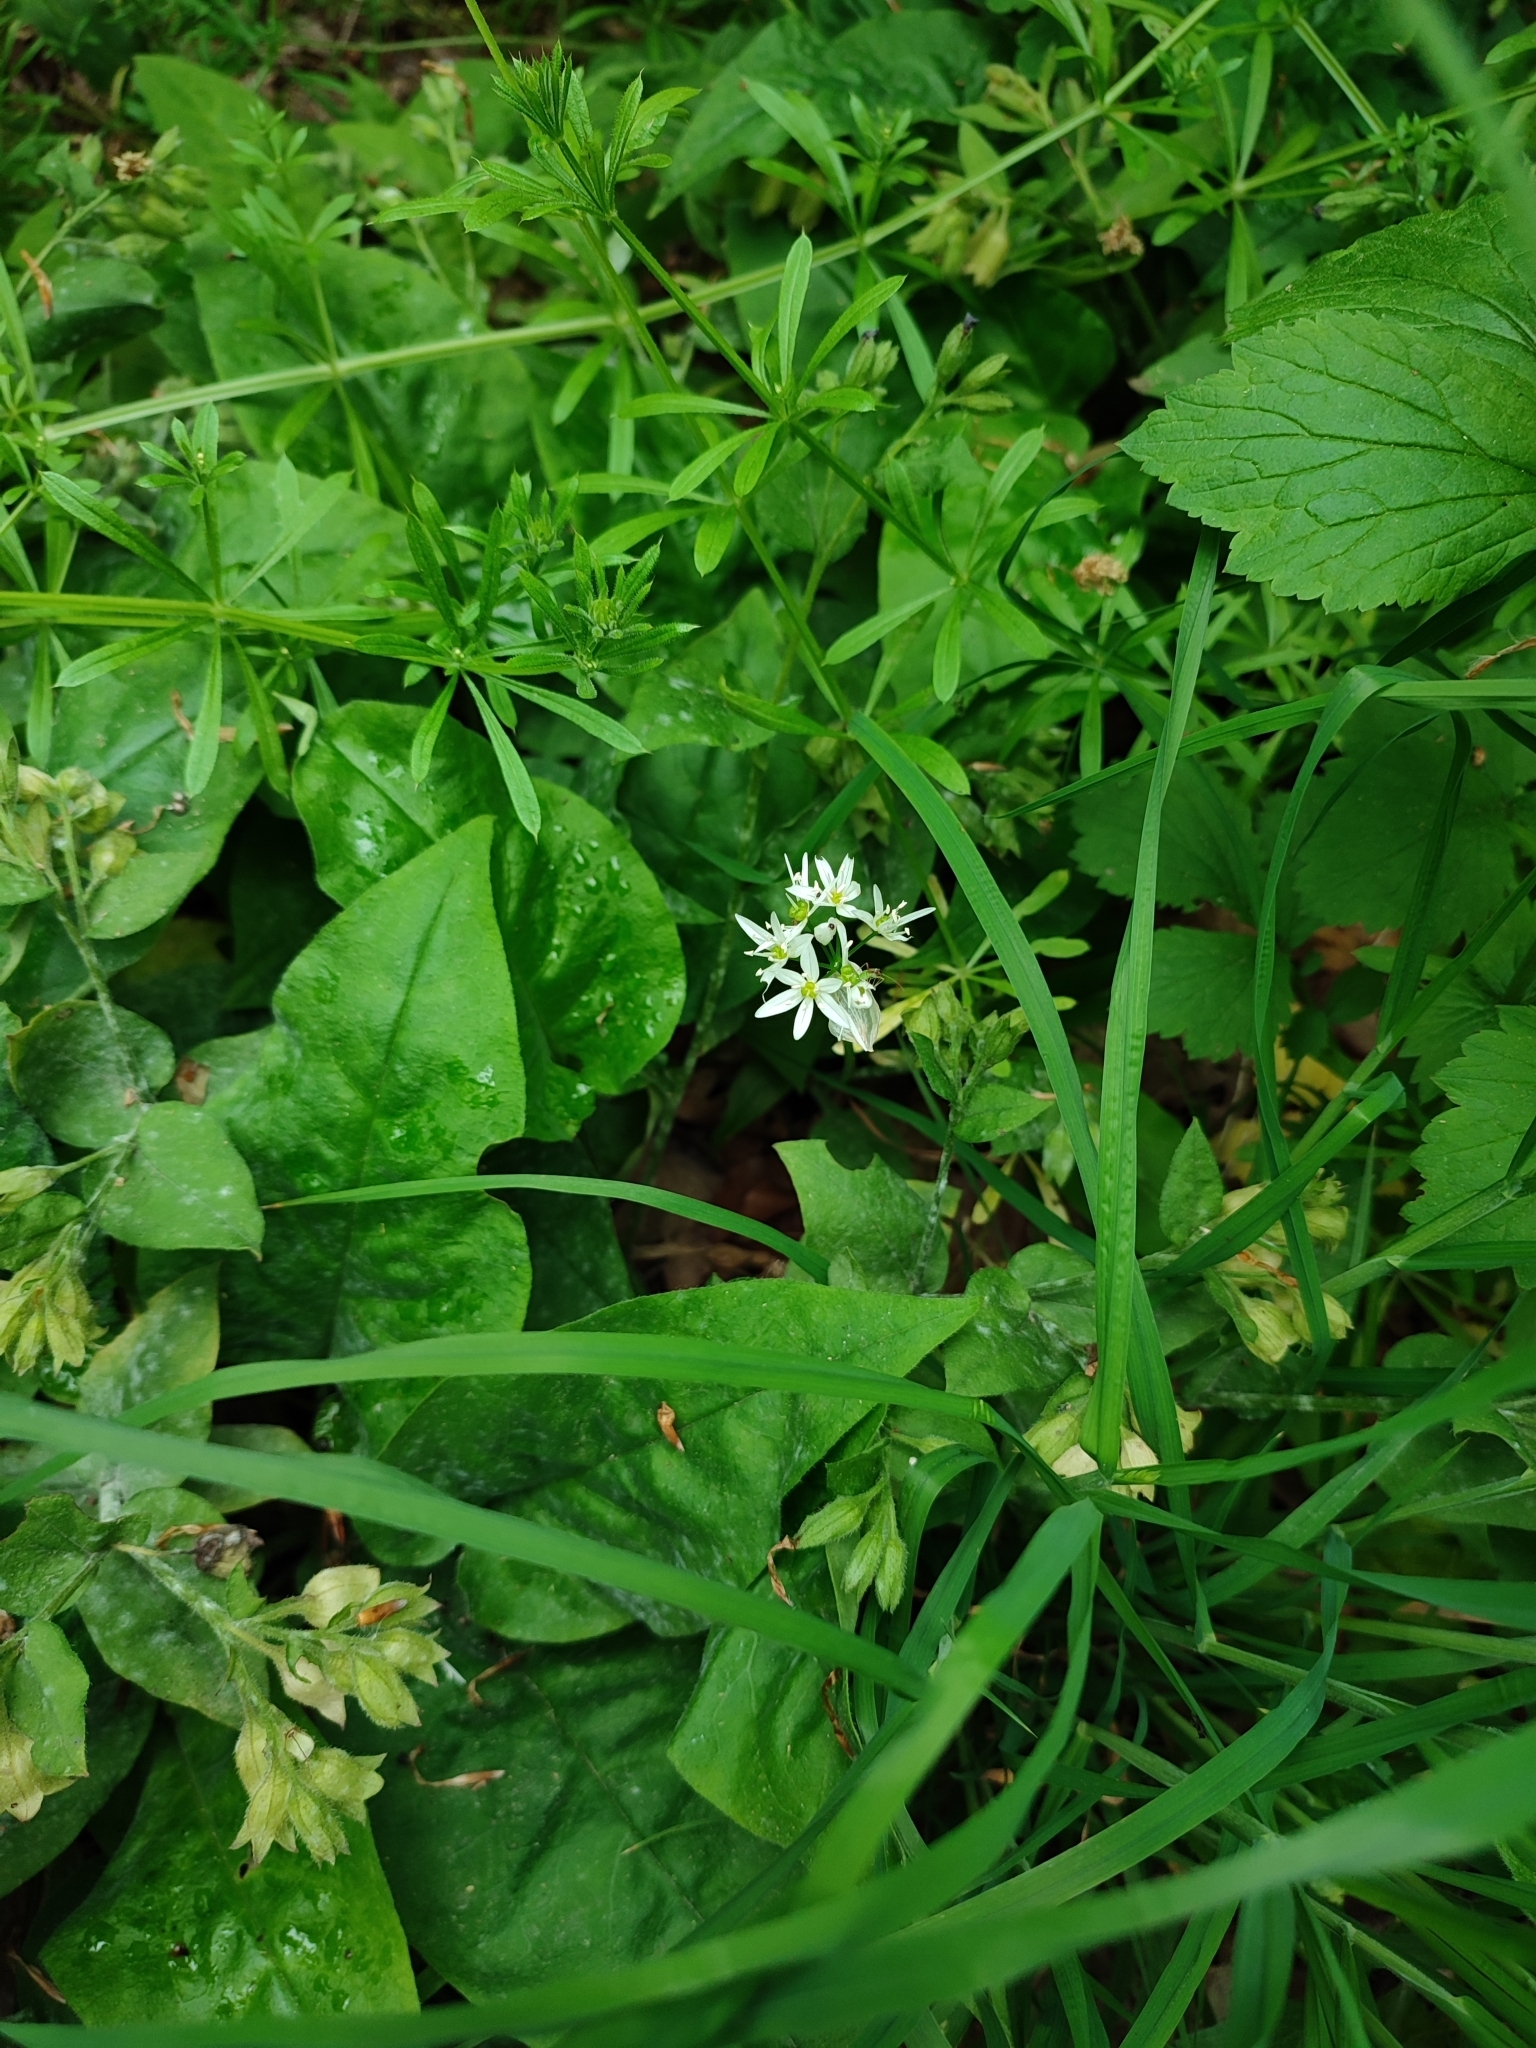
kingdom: Plantae
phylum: Tracheophyta
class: Liliopsida
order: Asparagales
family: Amaryllidaceae
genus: Allium
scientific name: Allium ursinum
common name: Ramsons
